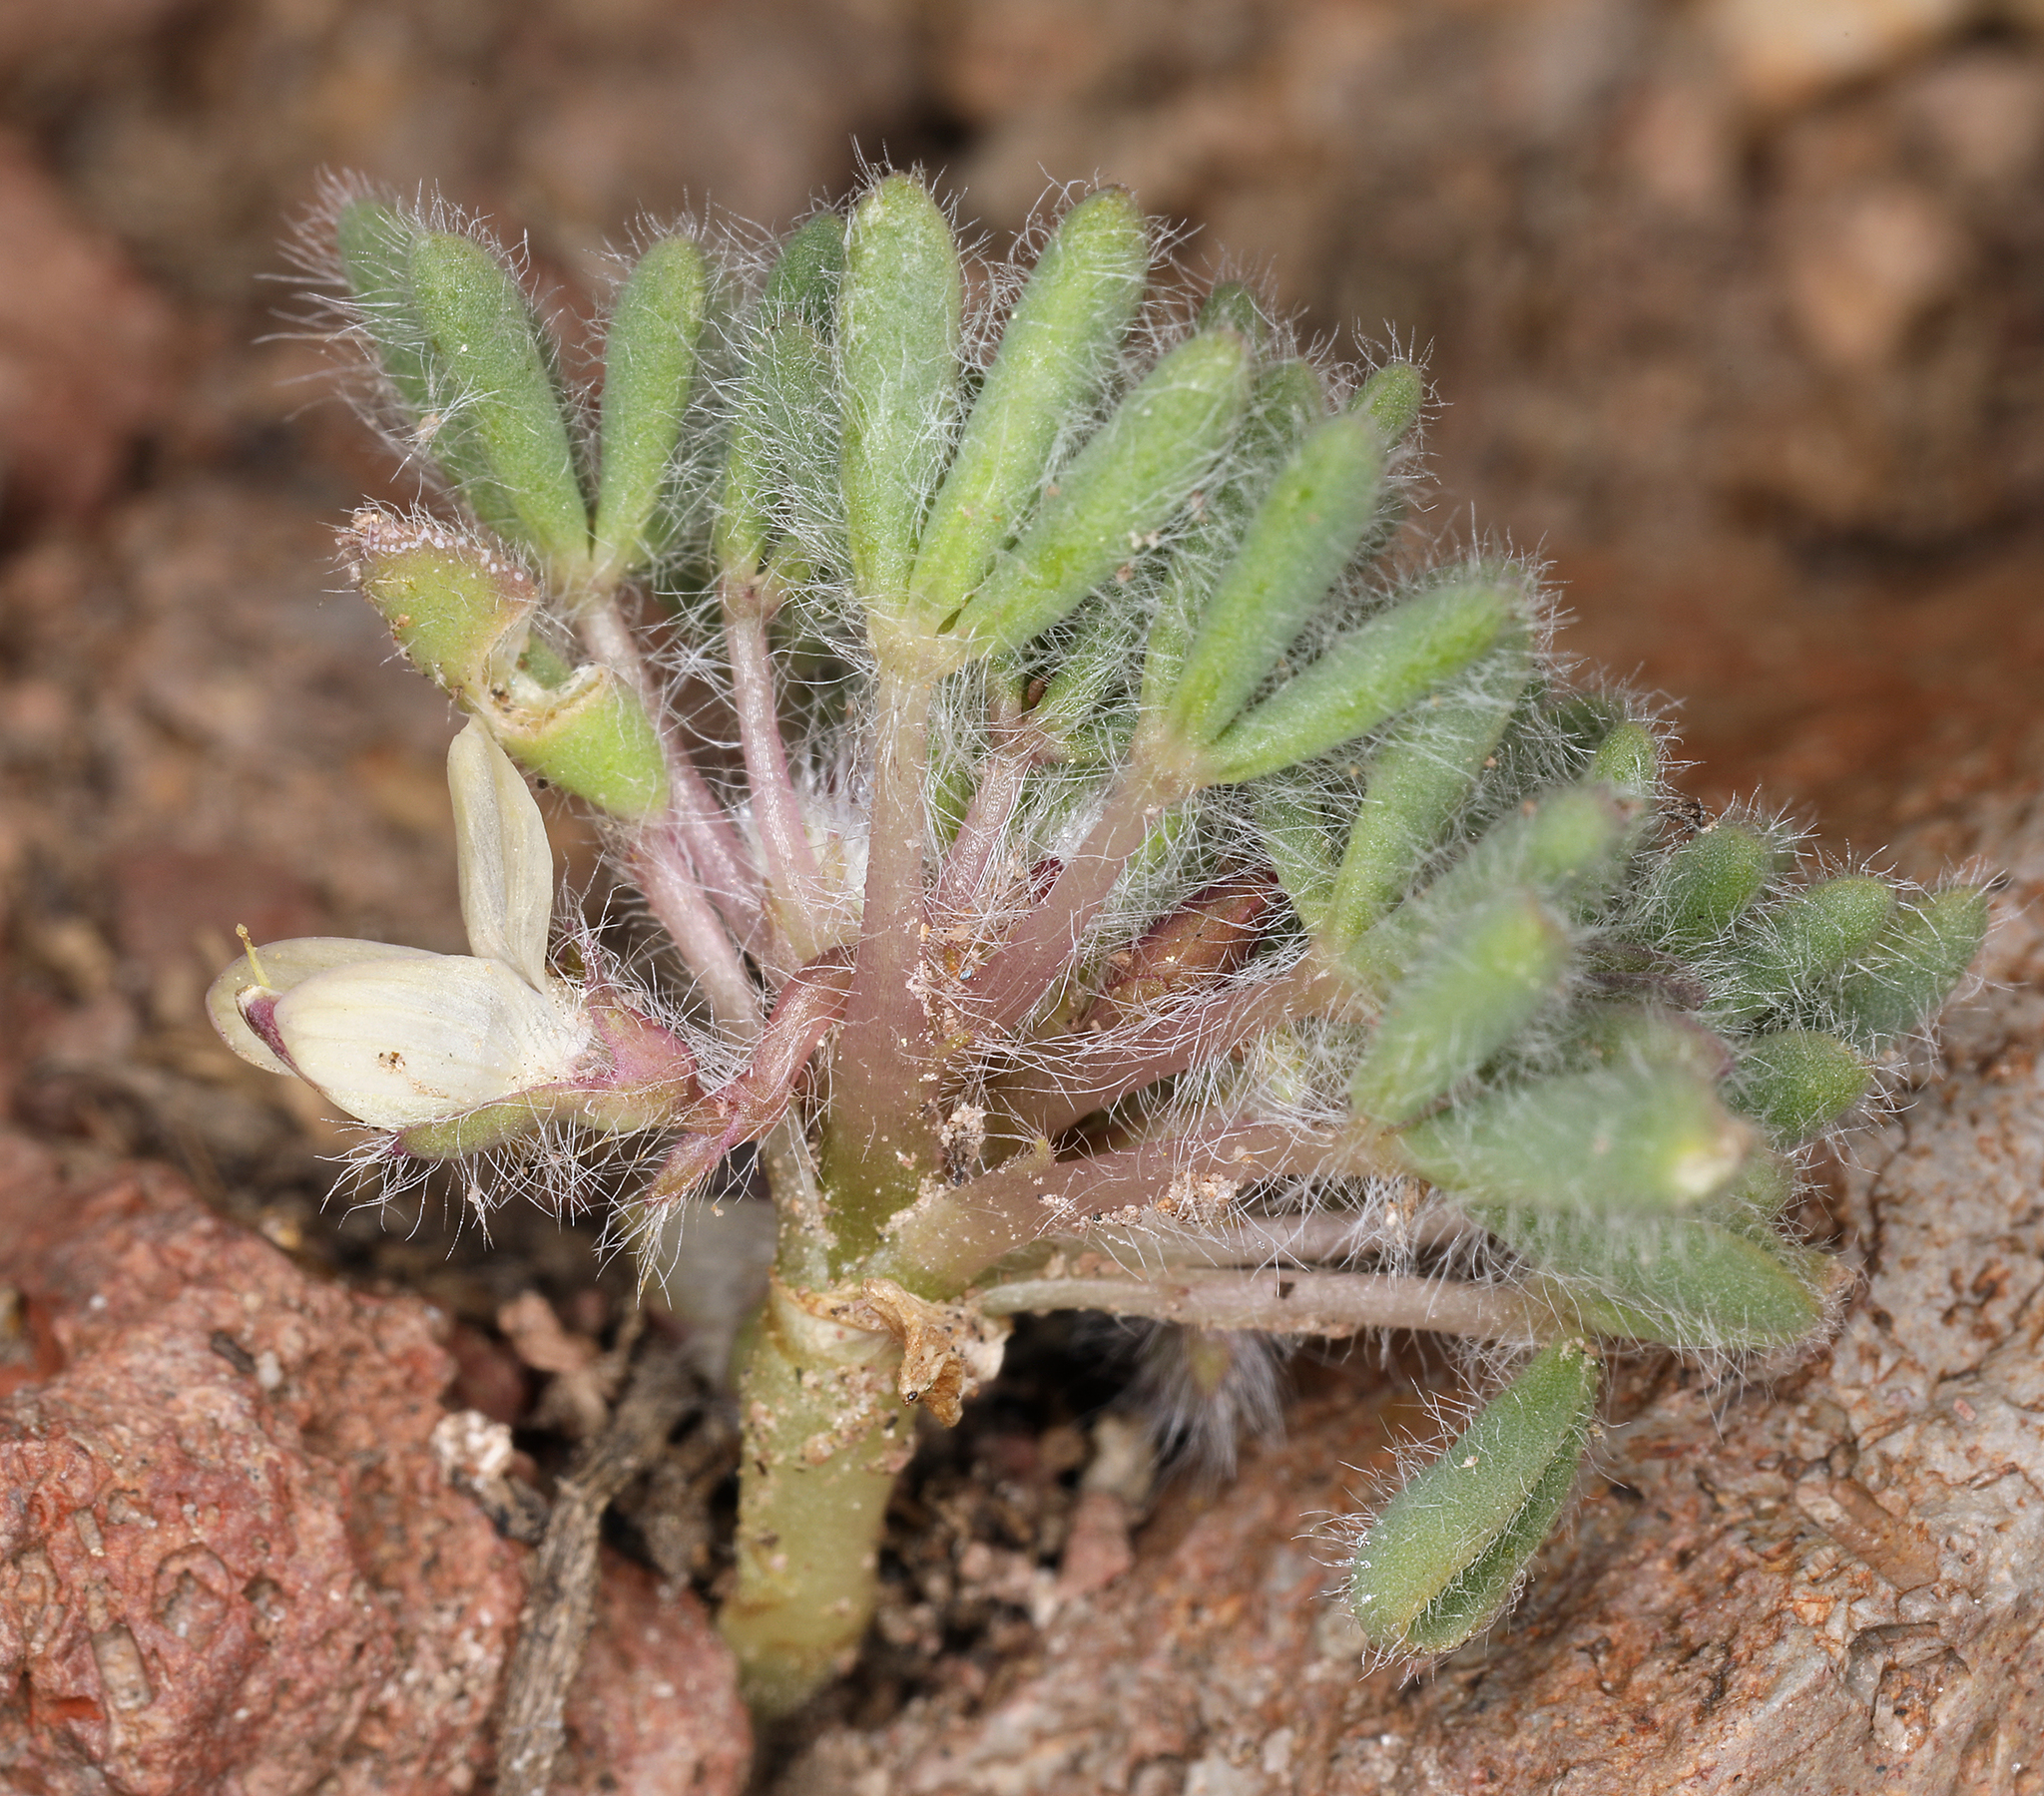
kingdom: Plantae
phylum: Tracheophyta
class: Magnoliopsida
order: Fabales
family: Fabaceae
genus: Lupinus
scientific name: Lupinus uncialis
